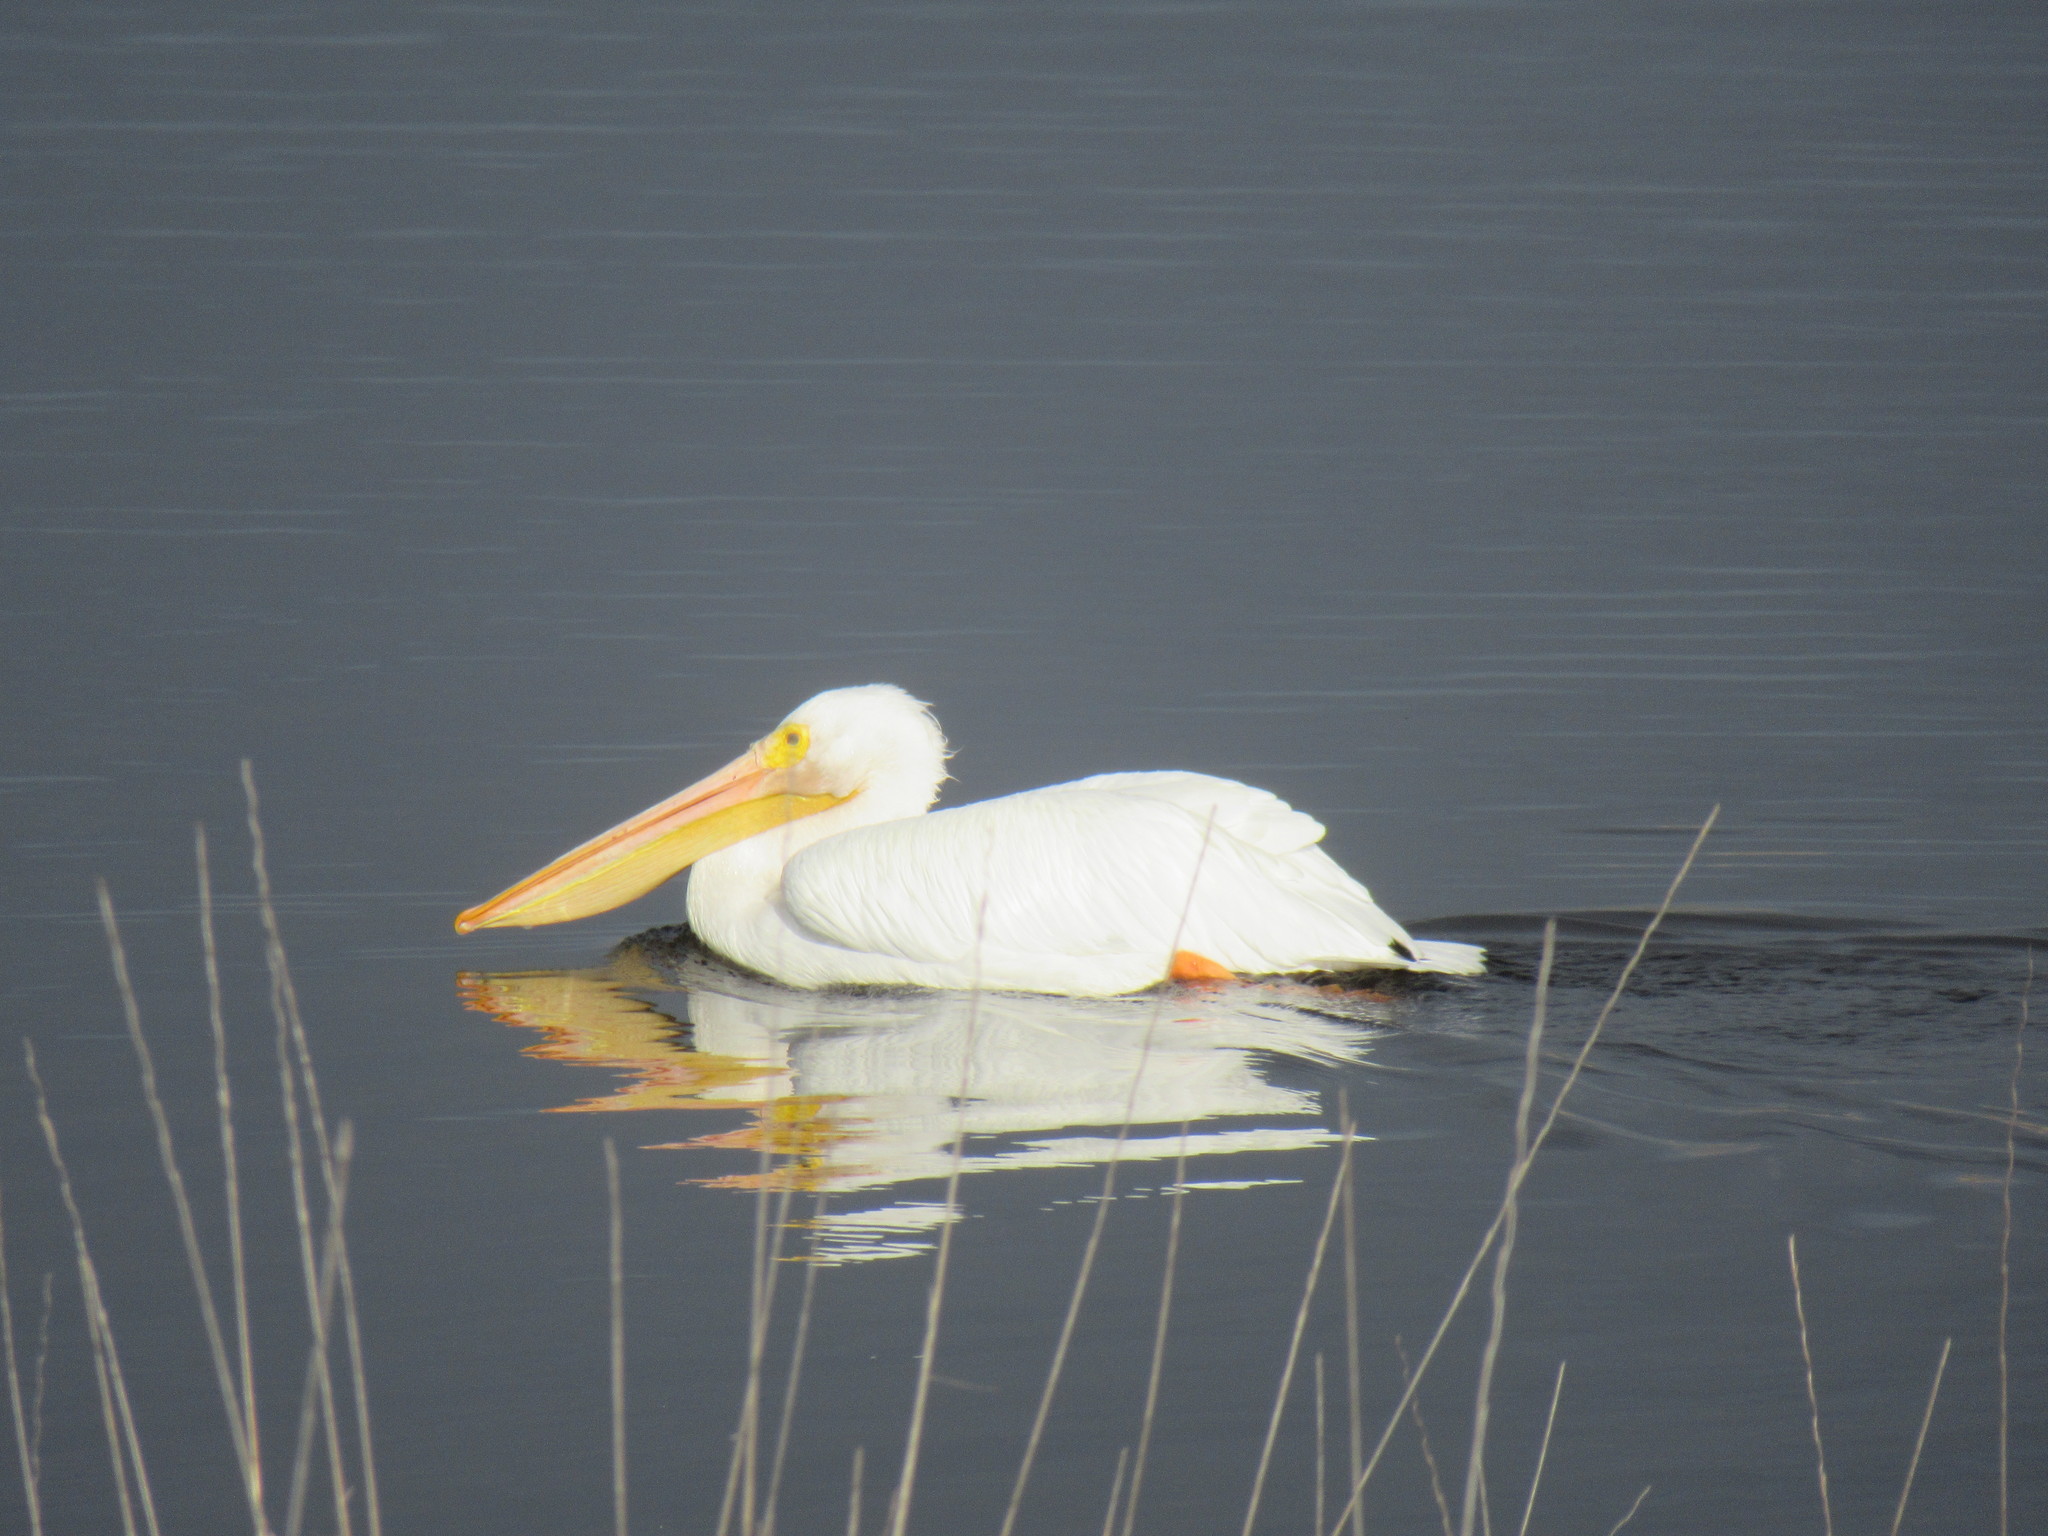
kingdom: Animalia
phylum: Chordata
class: Aves
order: Pelecaniformes
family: Pelecanidae
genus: Pelecanus
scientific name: Pelecanus erythrorhynchos
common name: American white pelican
